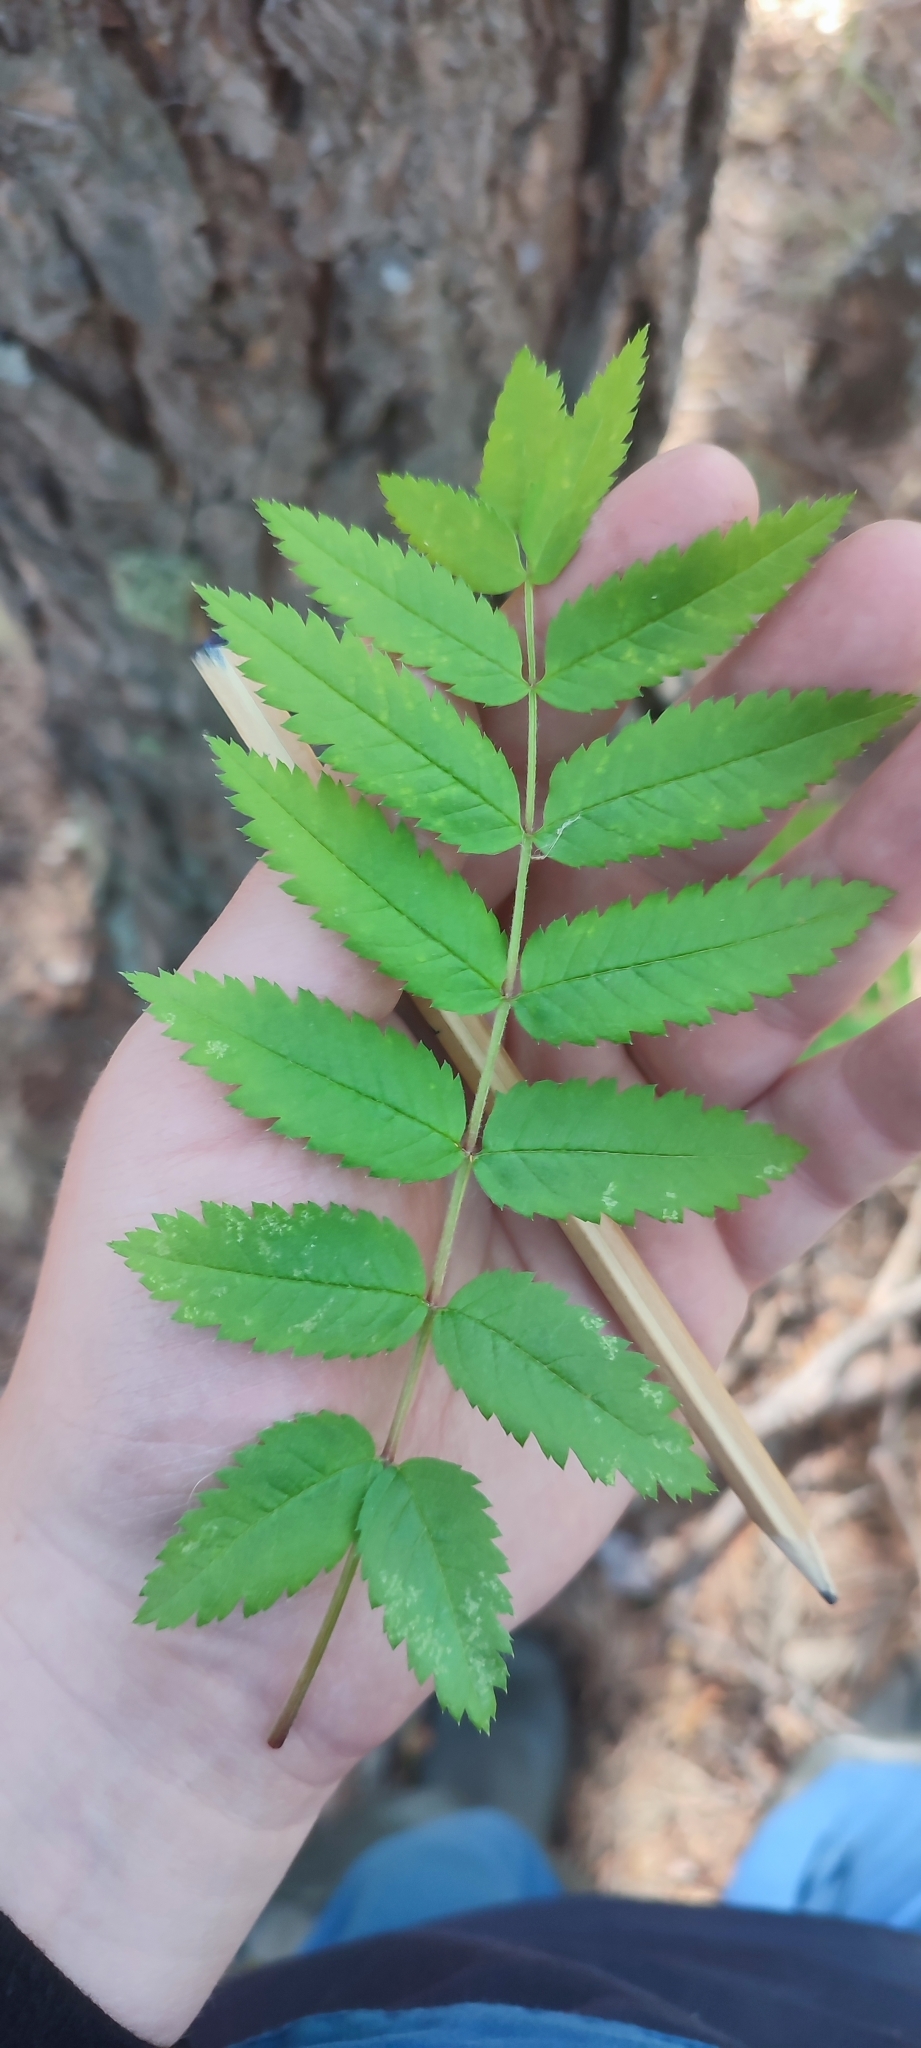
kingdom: Plantae
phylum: Tracheophyta
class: Magnoliopsida
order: Rosales
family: Rosaceae
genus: Sorbus
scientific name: Sorbus aucuparia
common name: Rowan
